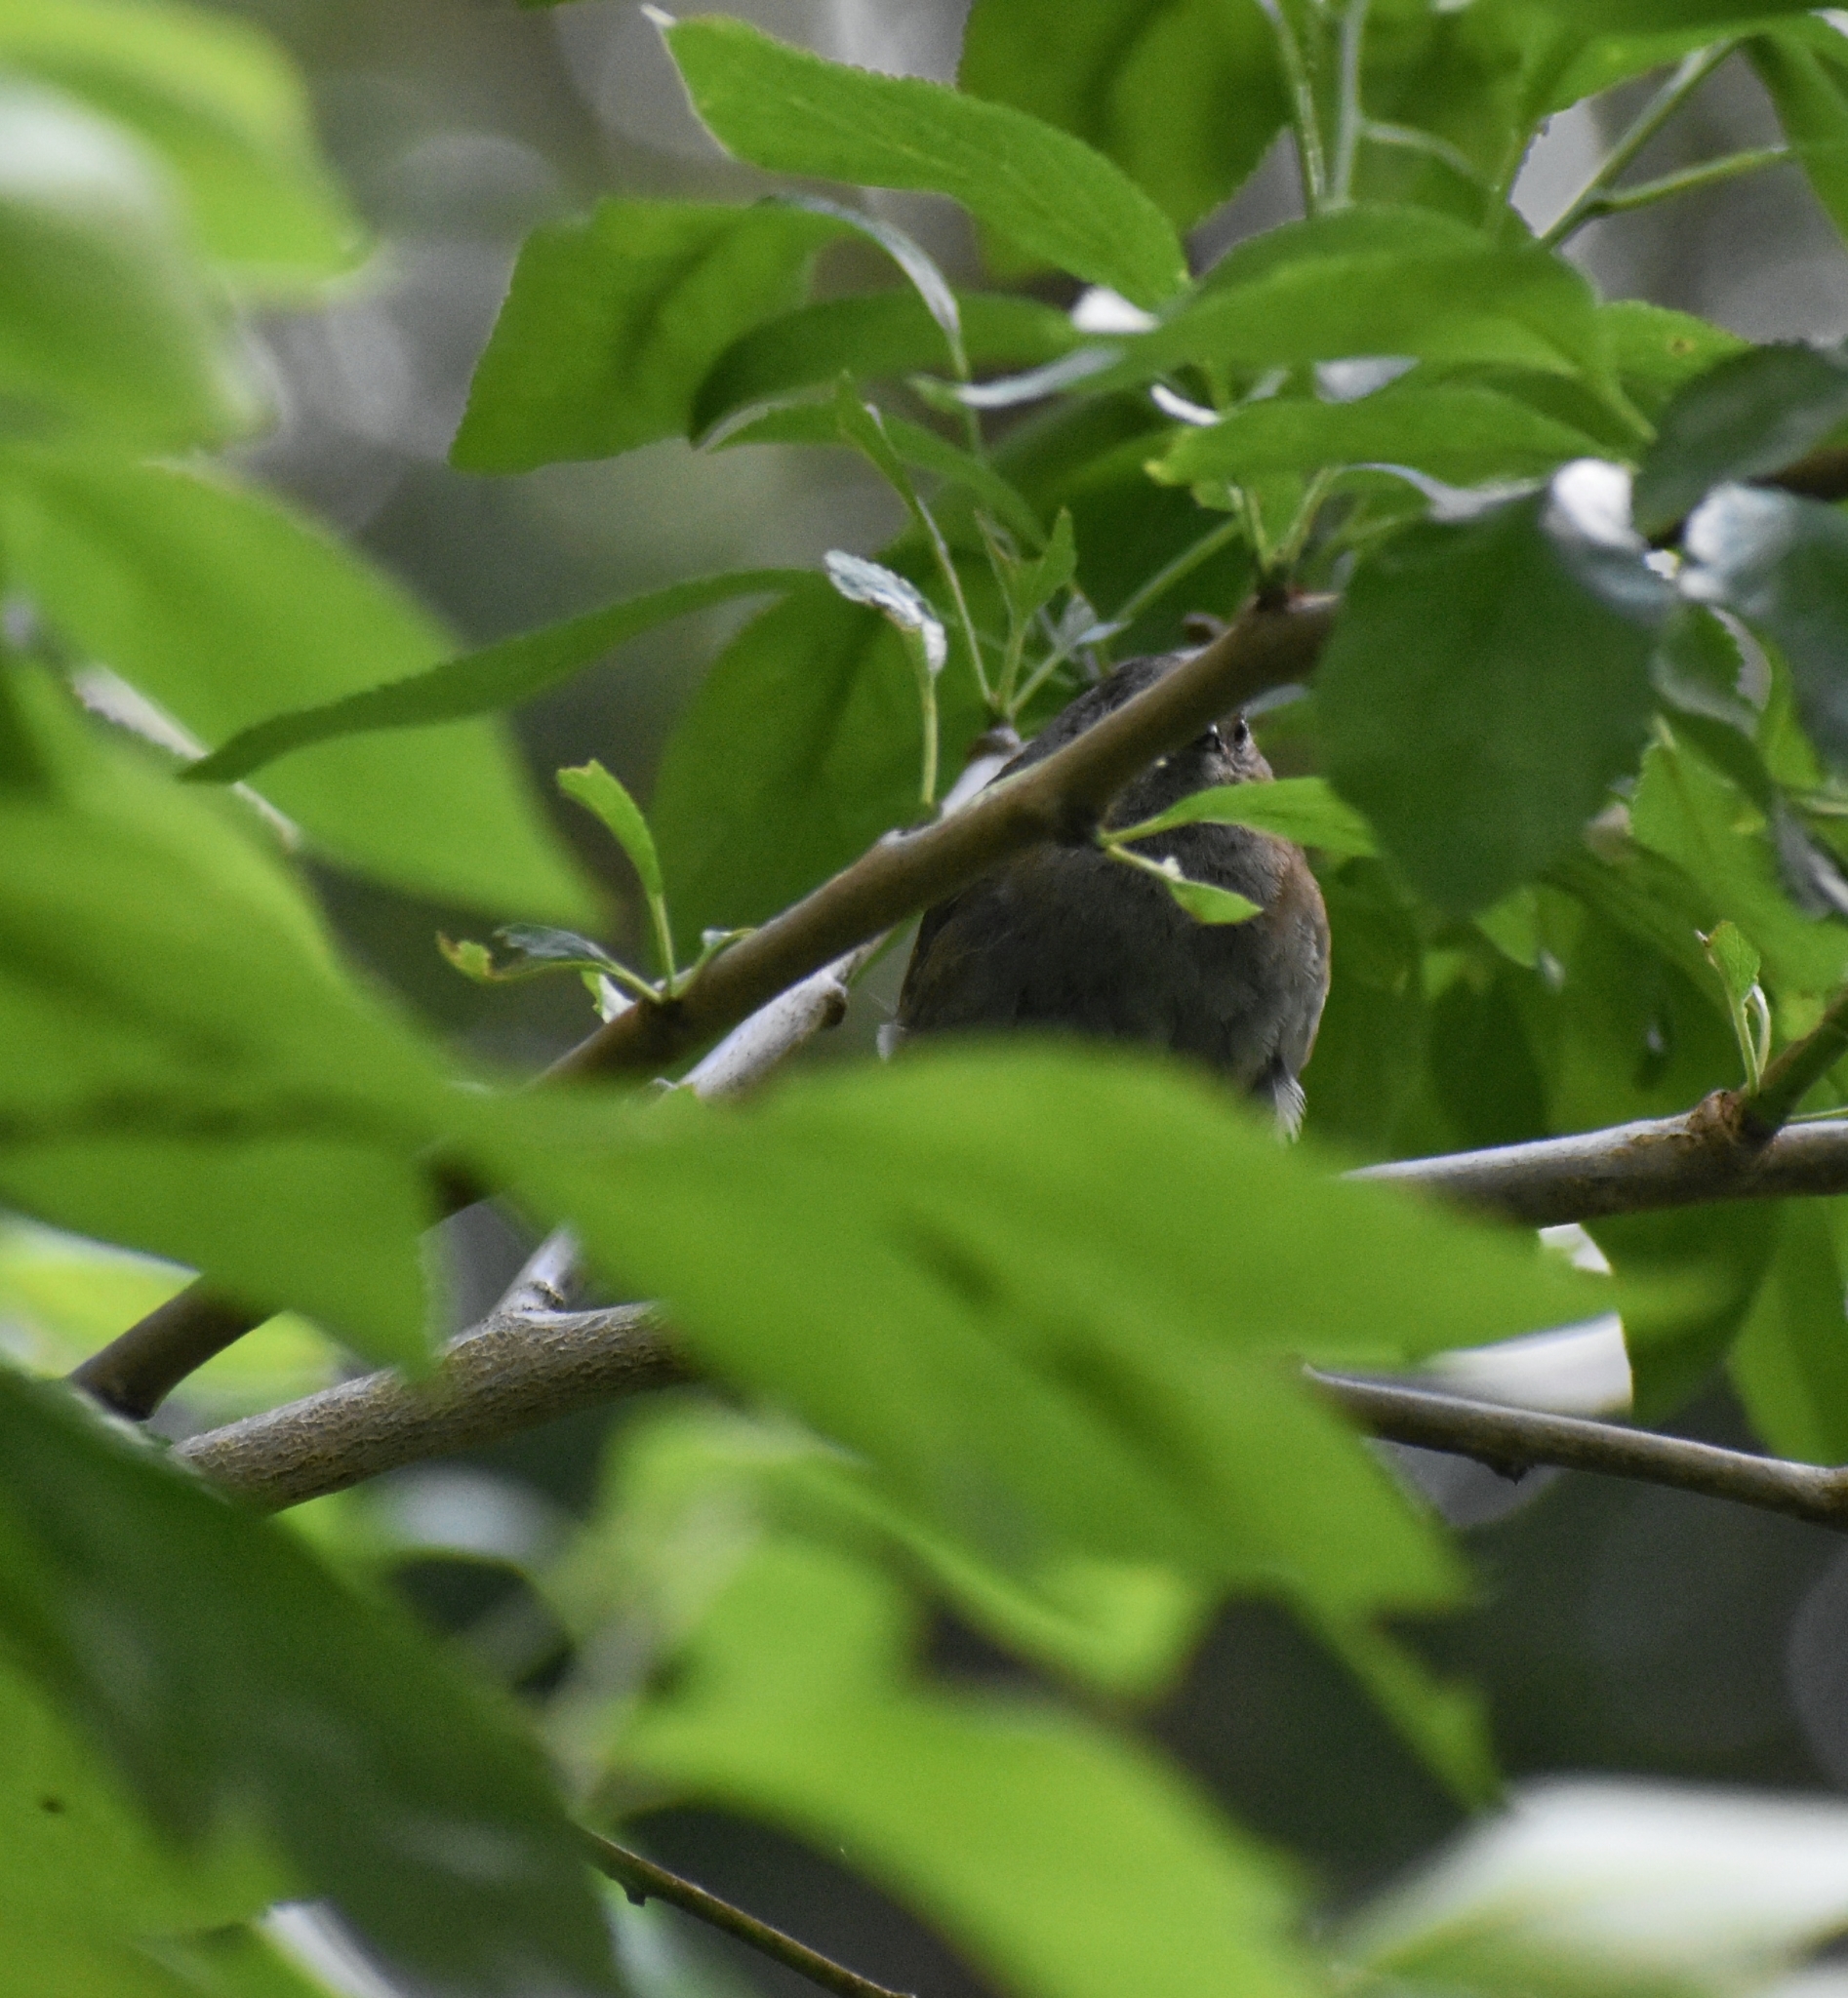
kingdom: Animalia
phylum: Chordata
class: Aves
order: Passeriformes
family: Prunellidae
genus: Prunella
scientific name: Prunella modularis
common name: Dunnock
